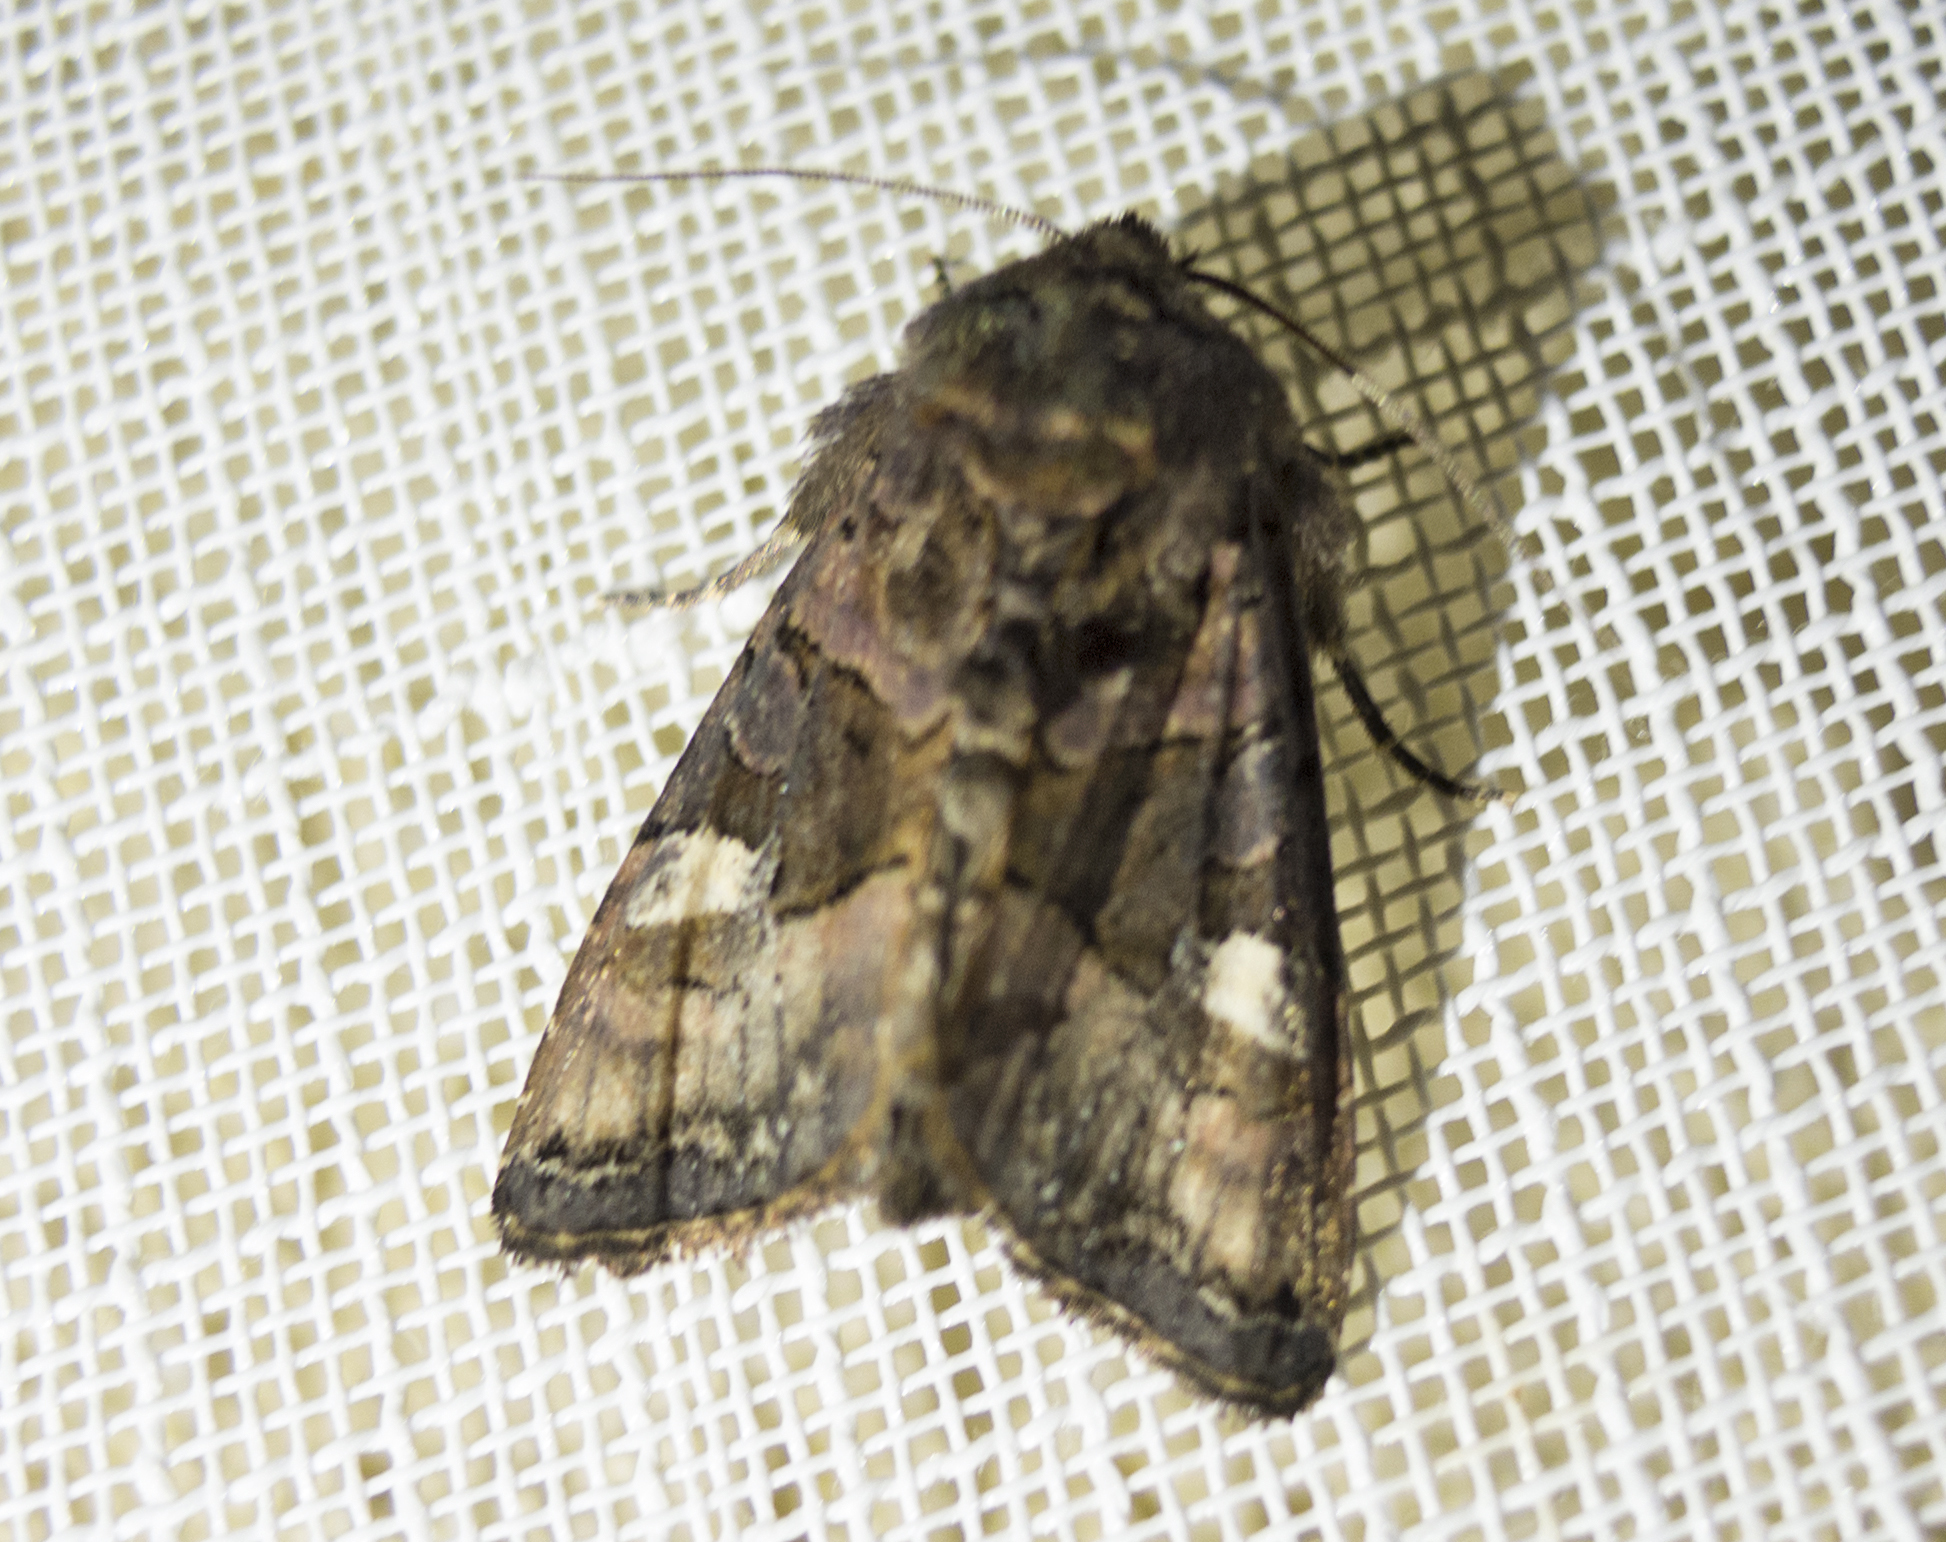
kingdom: Animalia
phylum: Arthropoda
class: Insecta
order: Lepidoptera
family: Noctuidae
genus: Euplexia
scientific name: Euplexia lucipara
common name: Small angle shades
